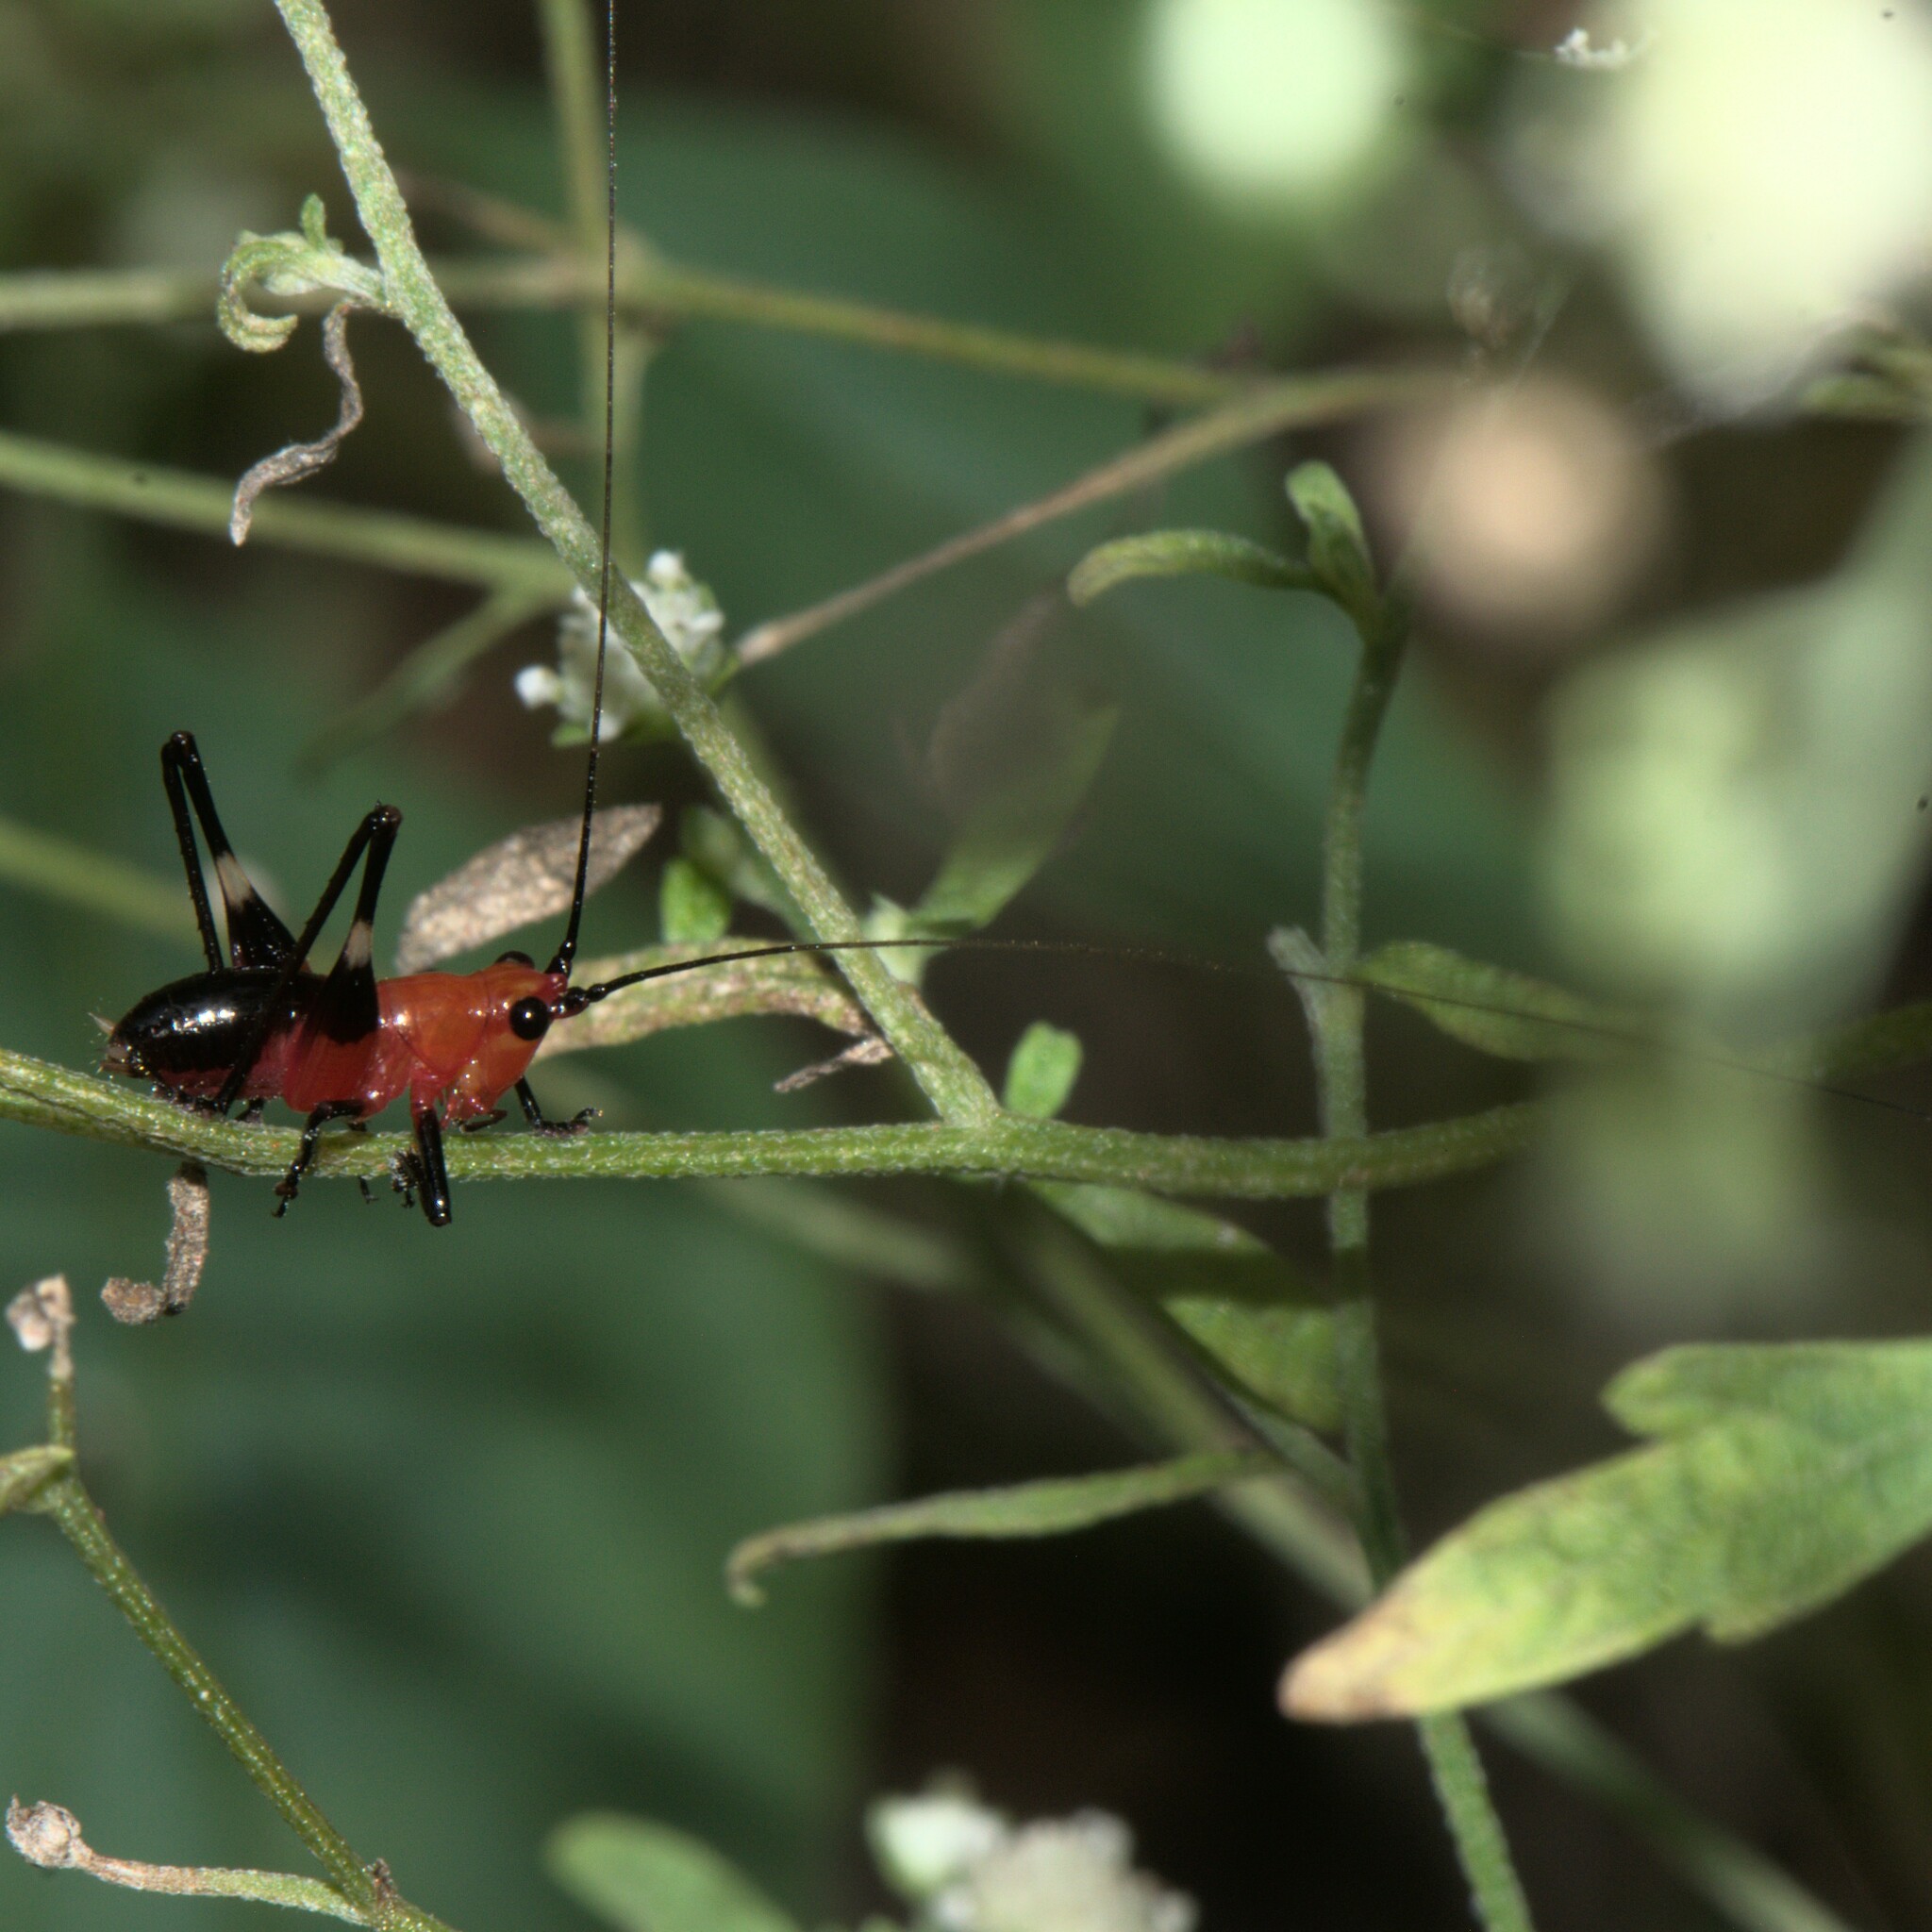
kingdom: Animalia
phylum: Arthropoda
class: Insecta
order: Orthoptera
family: Tettigoniidae
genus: Conocephalus
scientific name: Conocephalus melaenus
